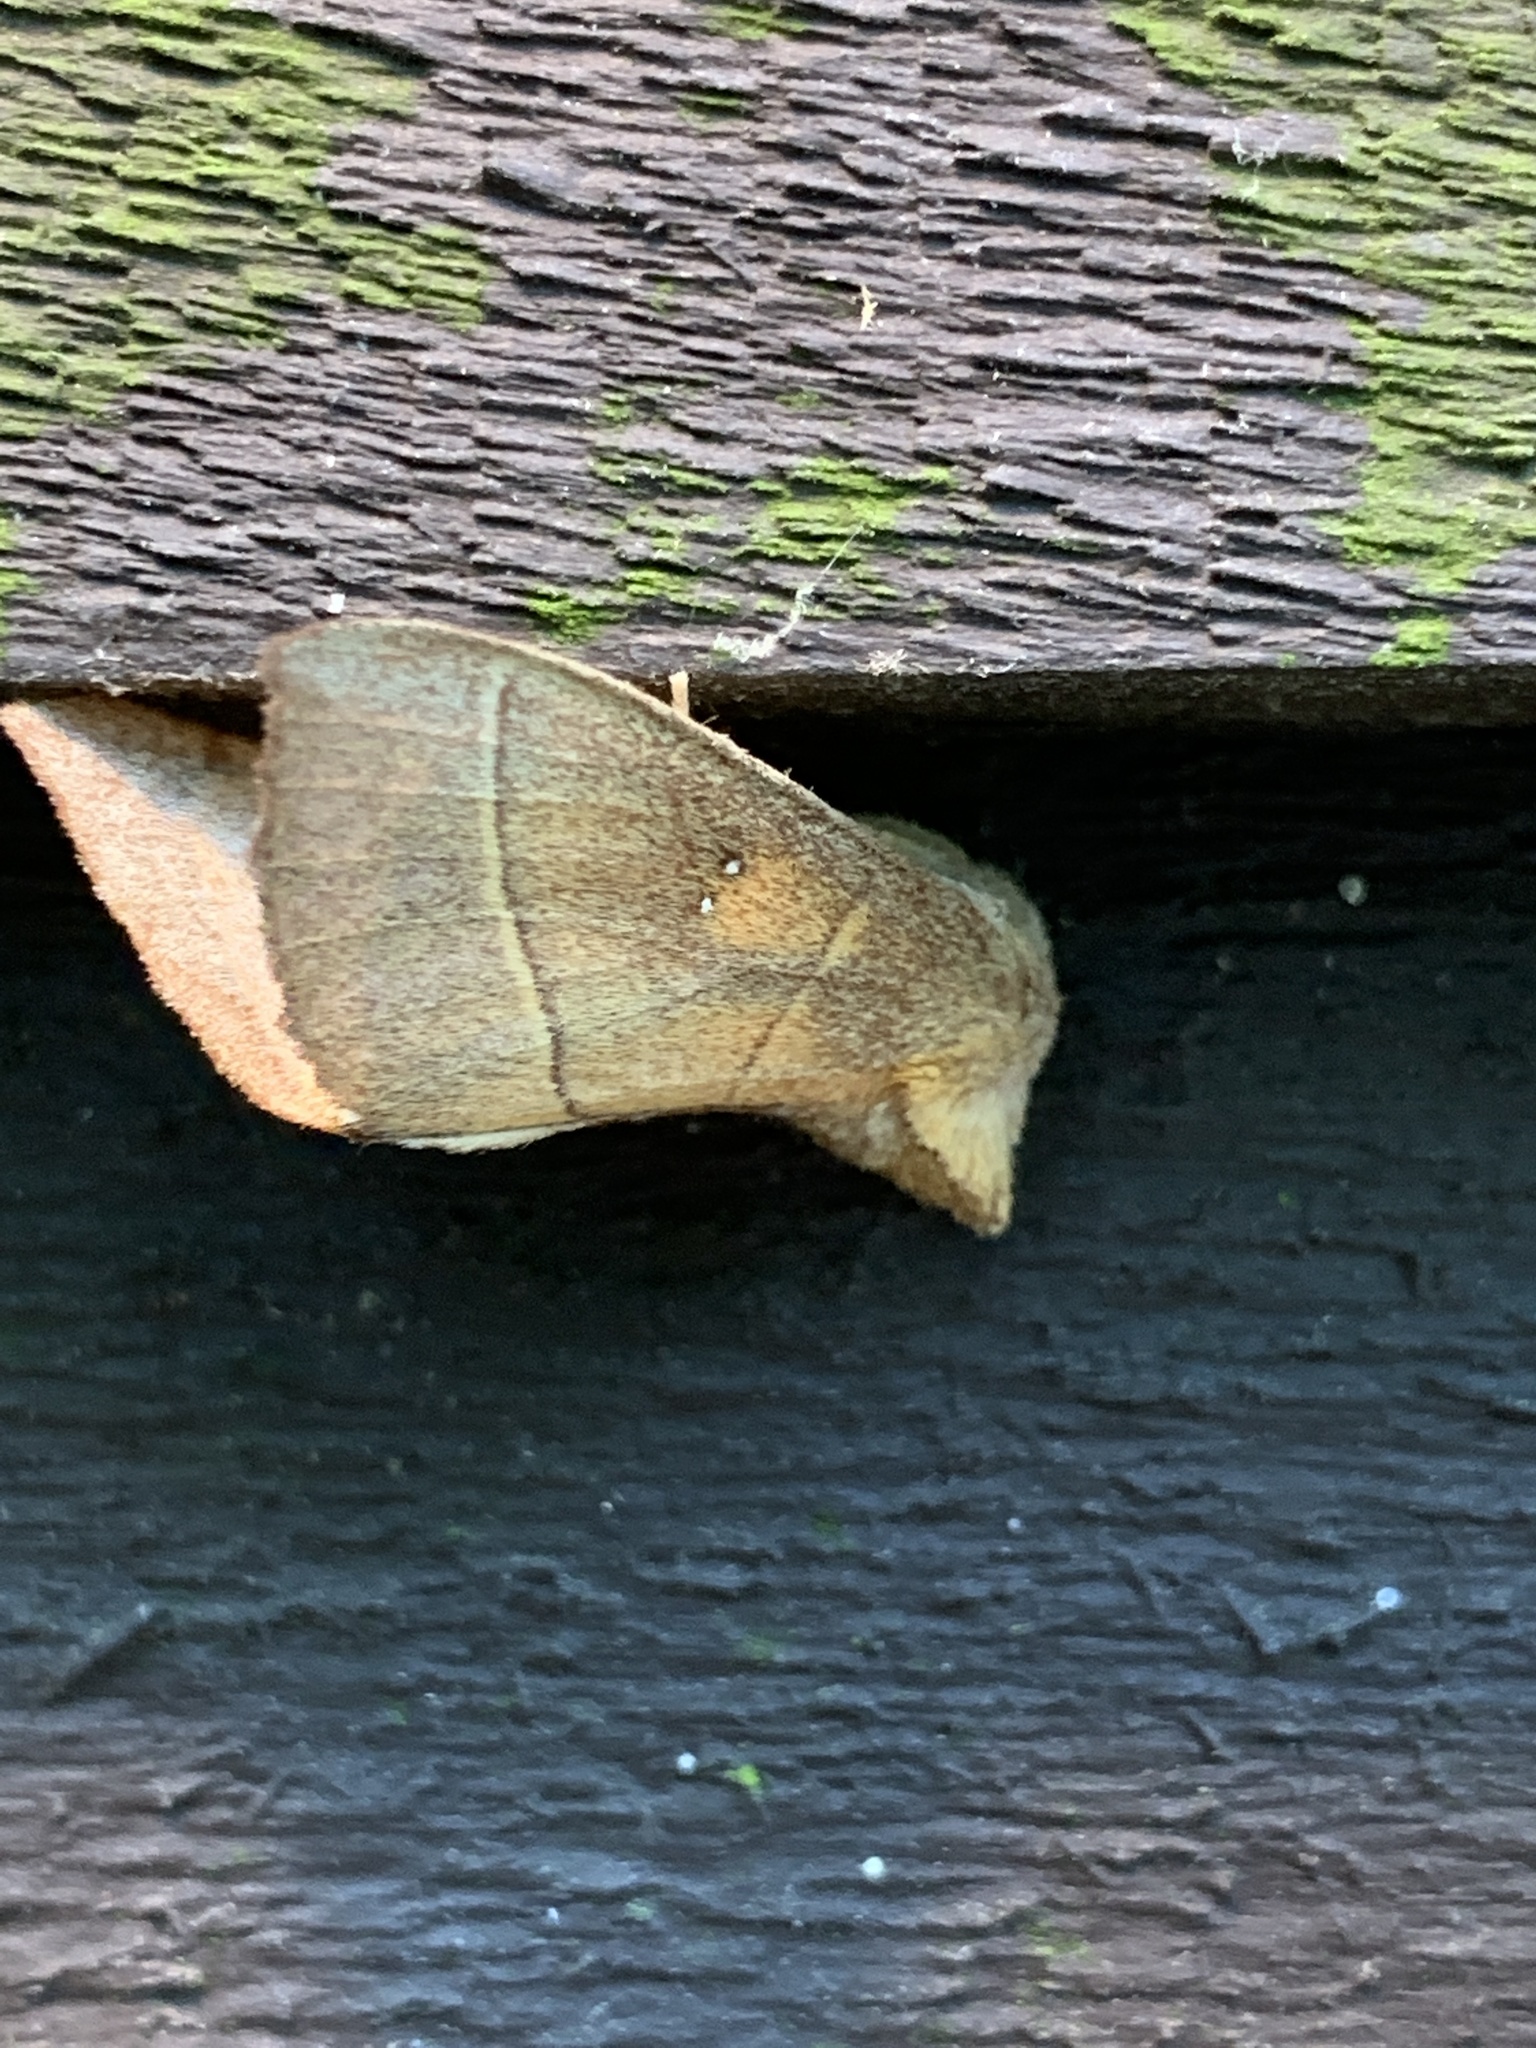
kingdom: Animalia
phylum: Arthropoda
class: Insecta
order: Lepidoptera
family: Notodontidae
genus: Nadata
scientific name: Nadata gibbosa
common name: White-dotted prominent
